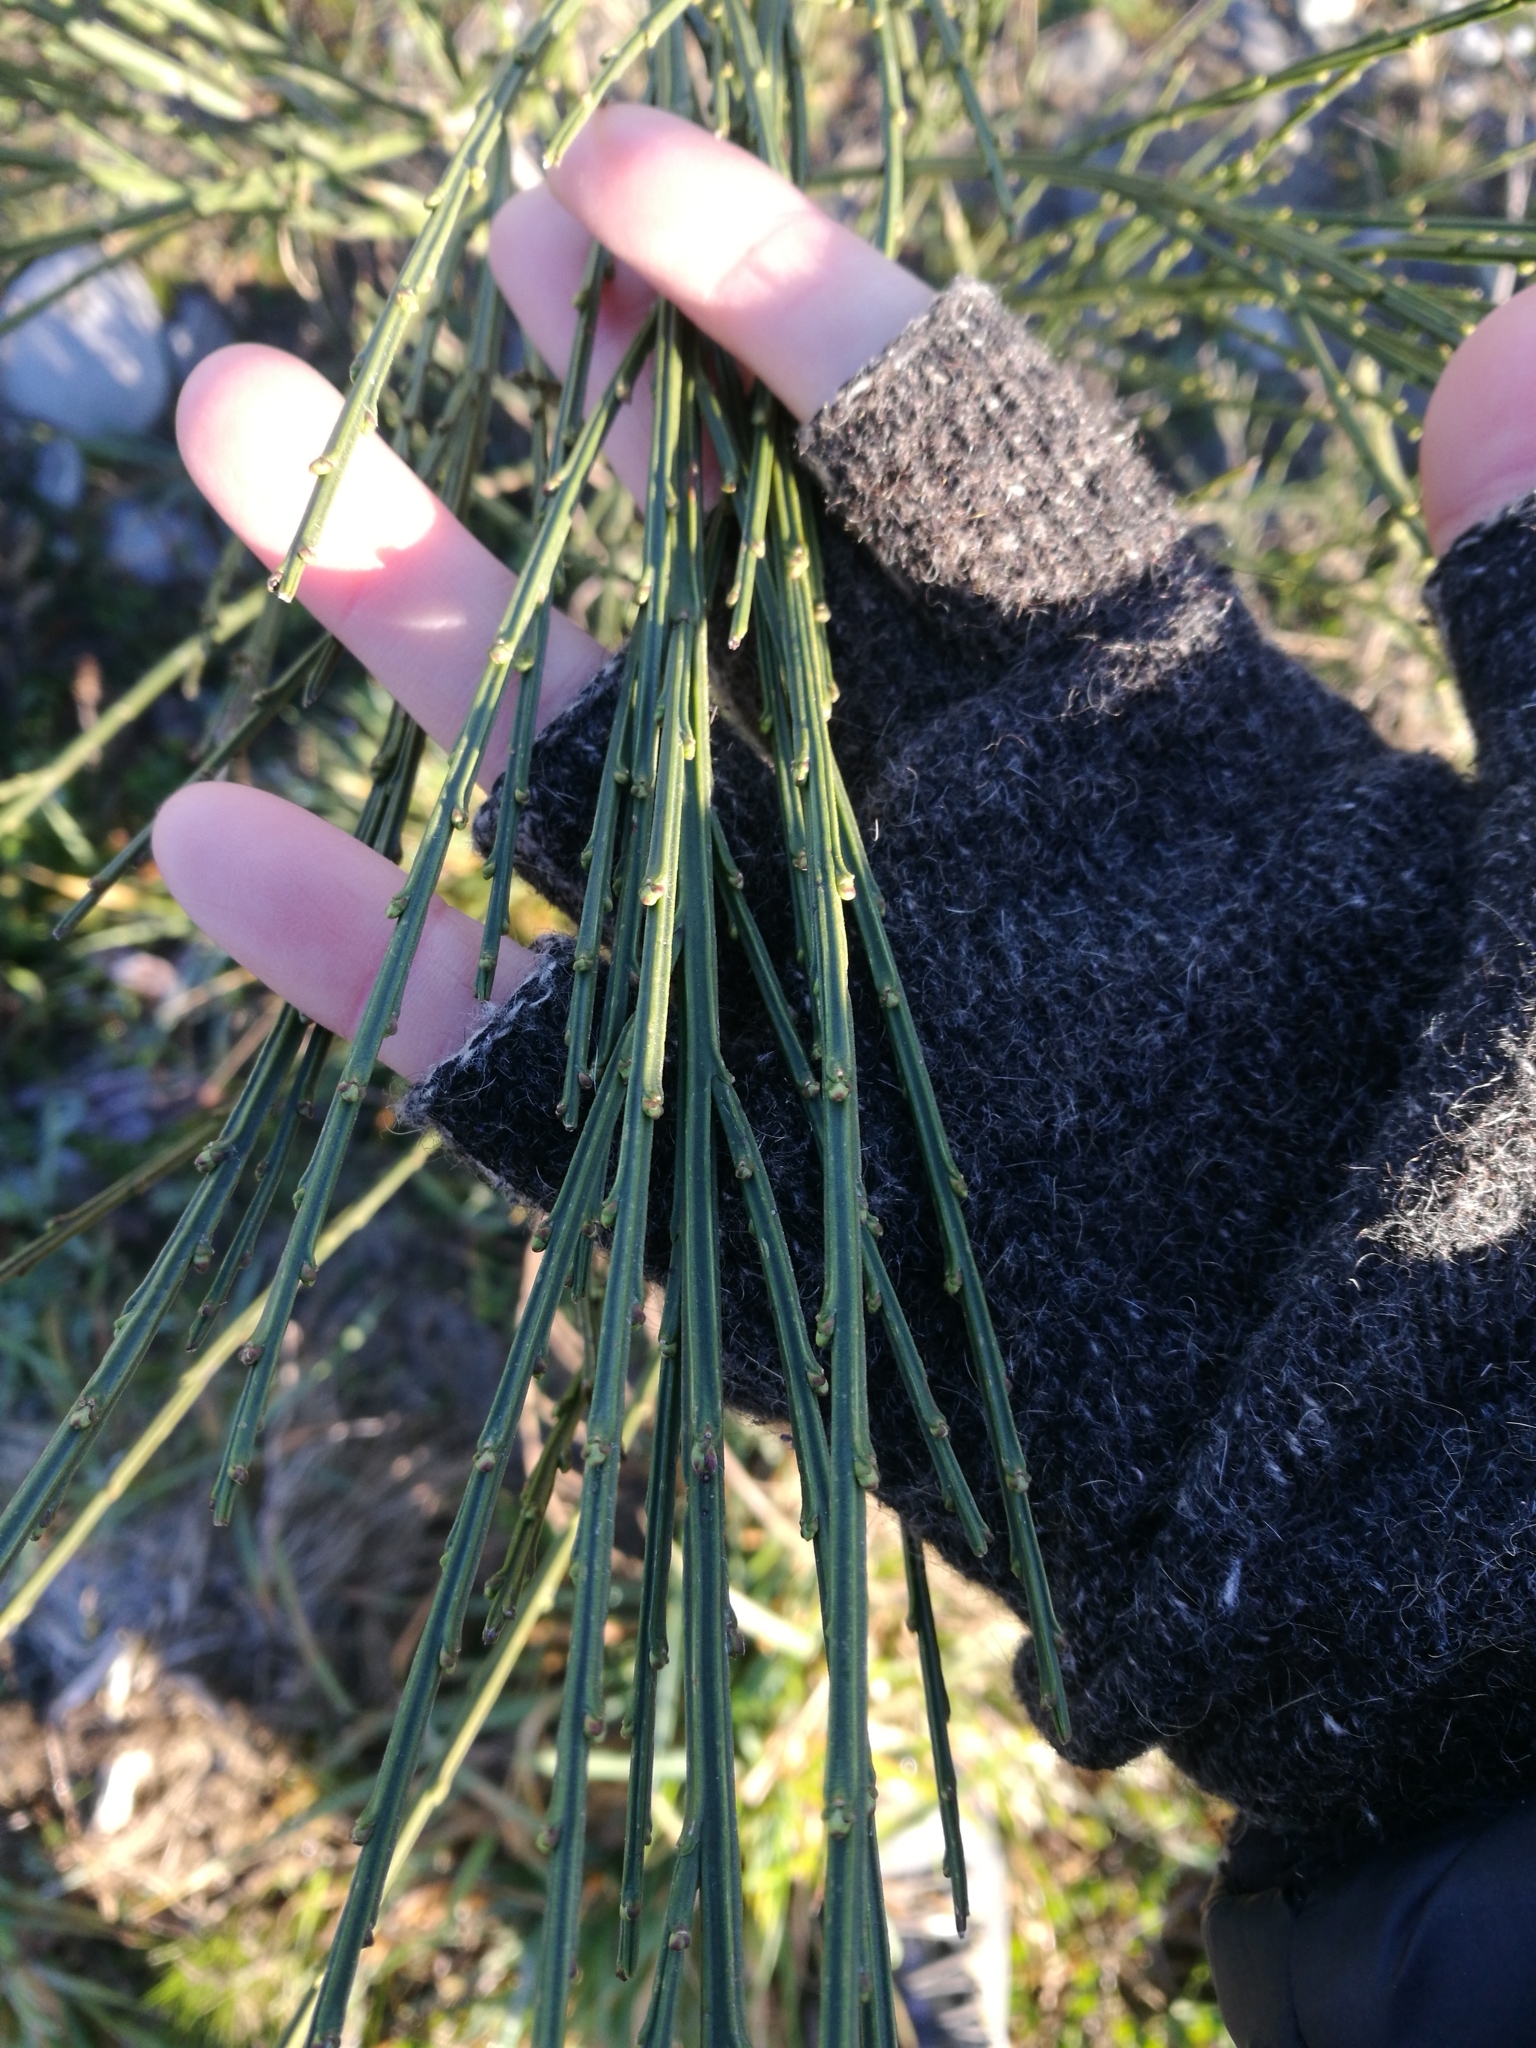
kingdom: Plantae
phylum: Tracheophyta
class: Magnoliopsida
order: Fabales
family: Fabaceae
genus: Cytisus
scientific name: Cytisus scoparius
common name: Scotch broom
